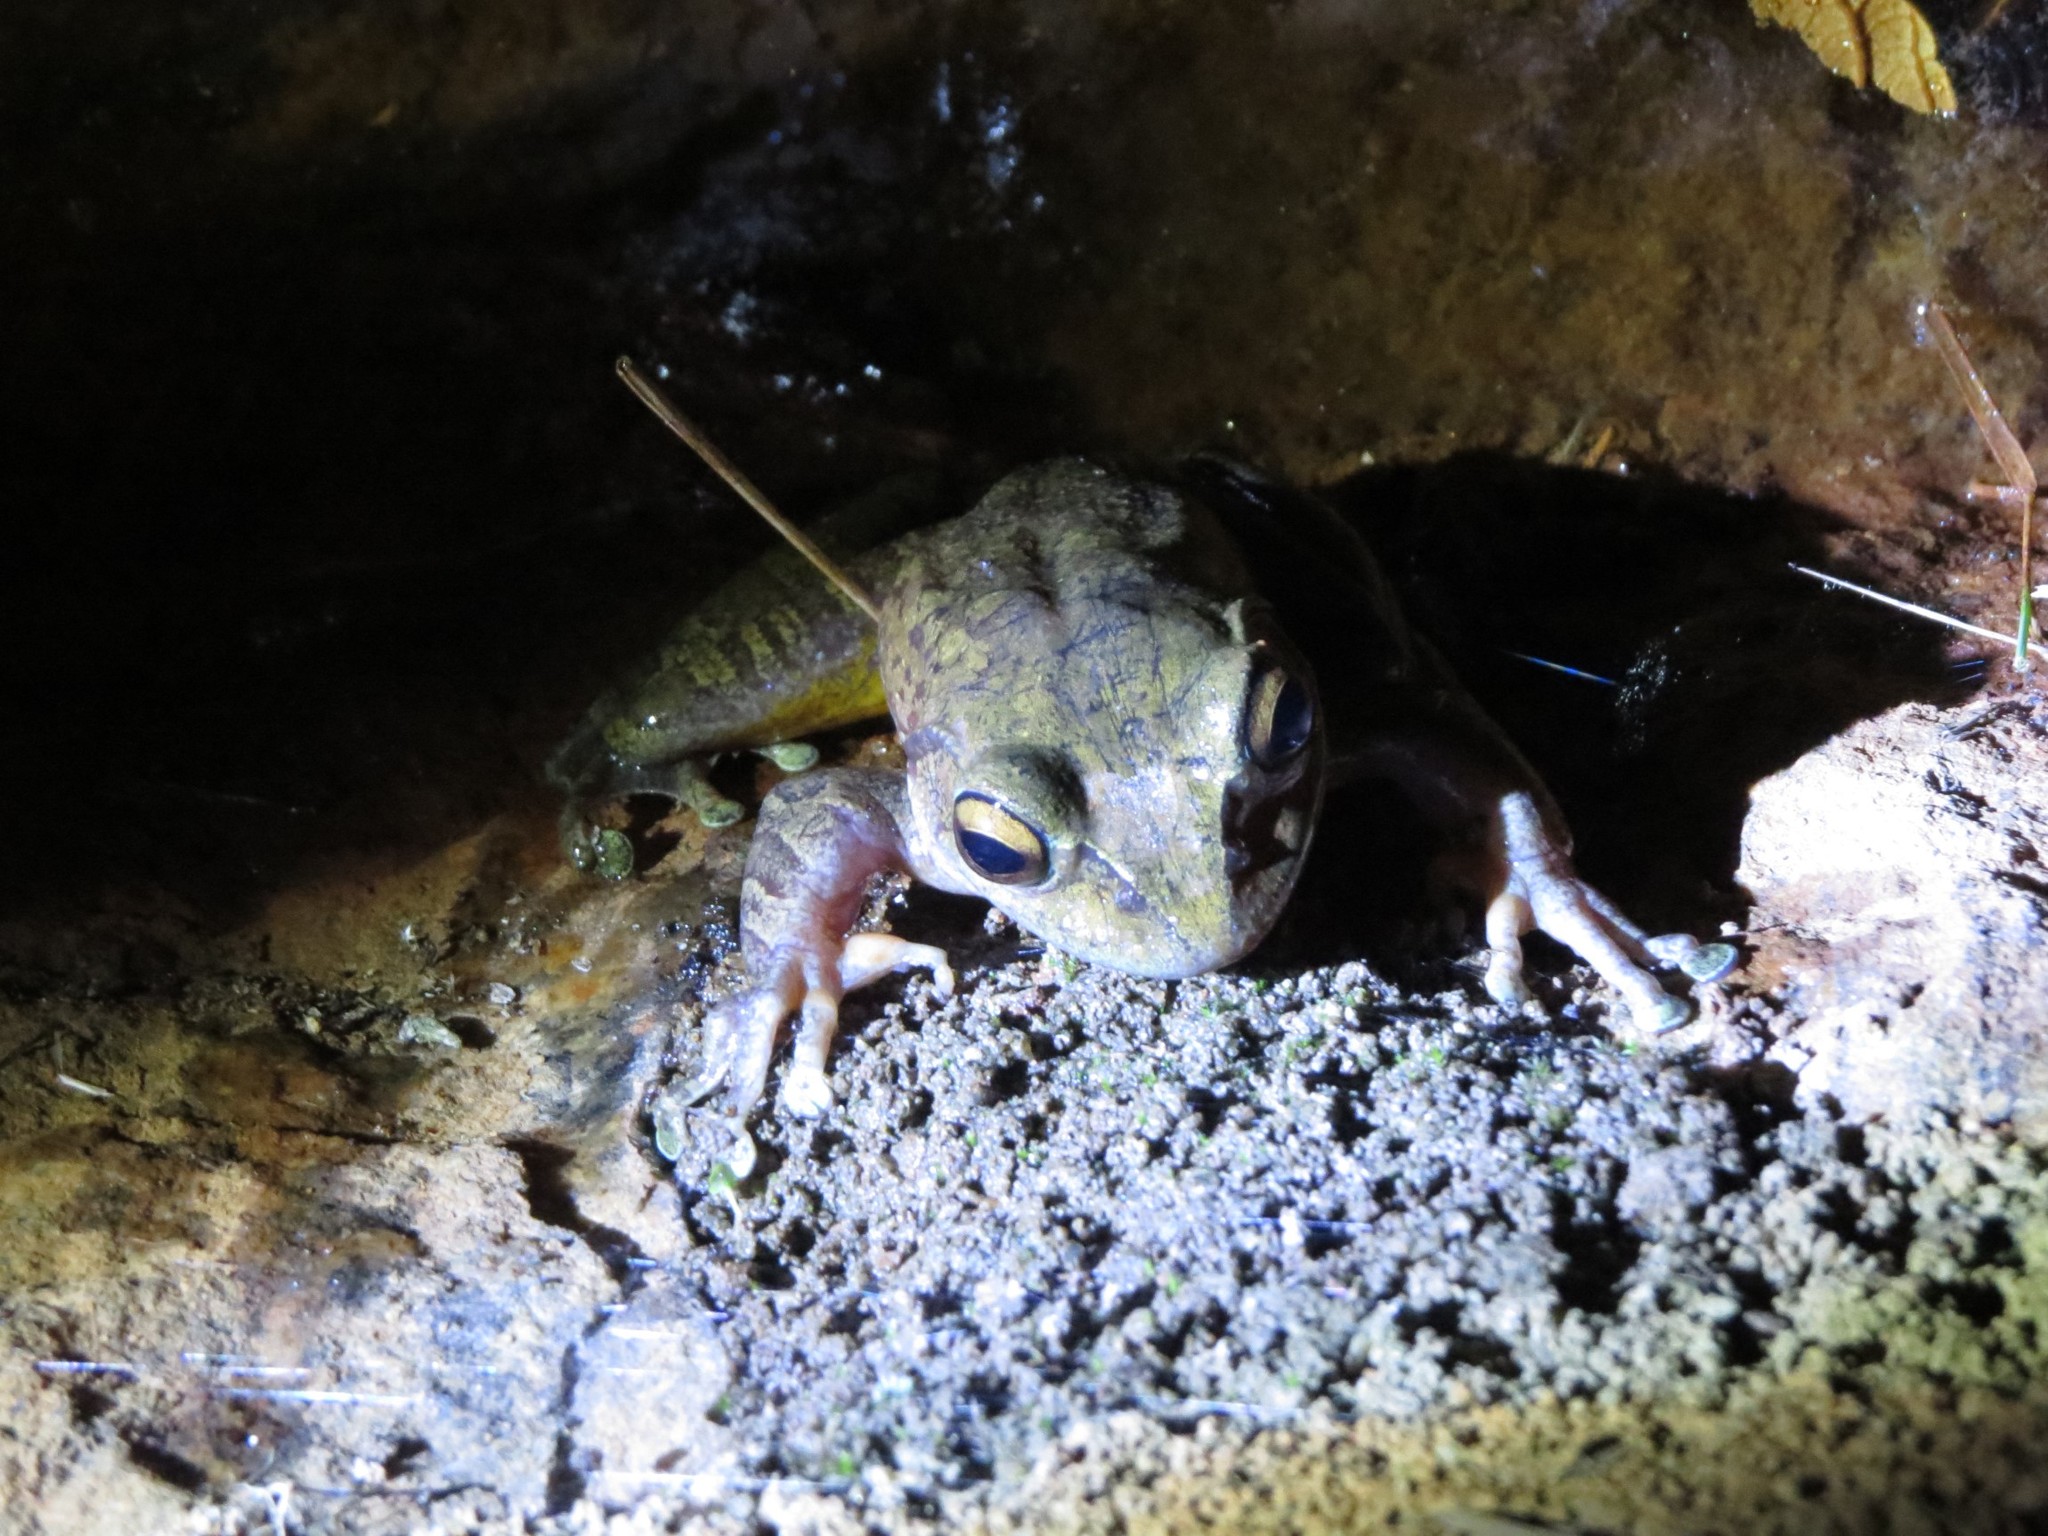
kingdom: Animalia
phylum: Chordata
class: Amphibia
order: Anura
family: Mantellidae
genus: Boophis
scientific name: Boophis goudotii
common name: Goudot's bright-eyed frog
